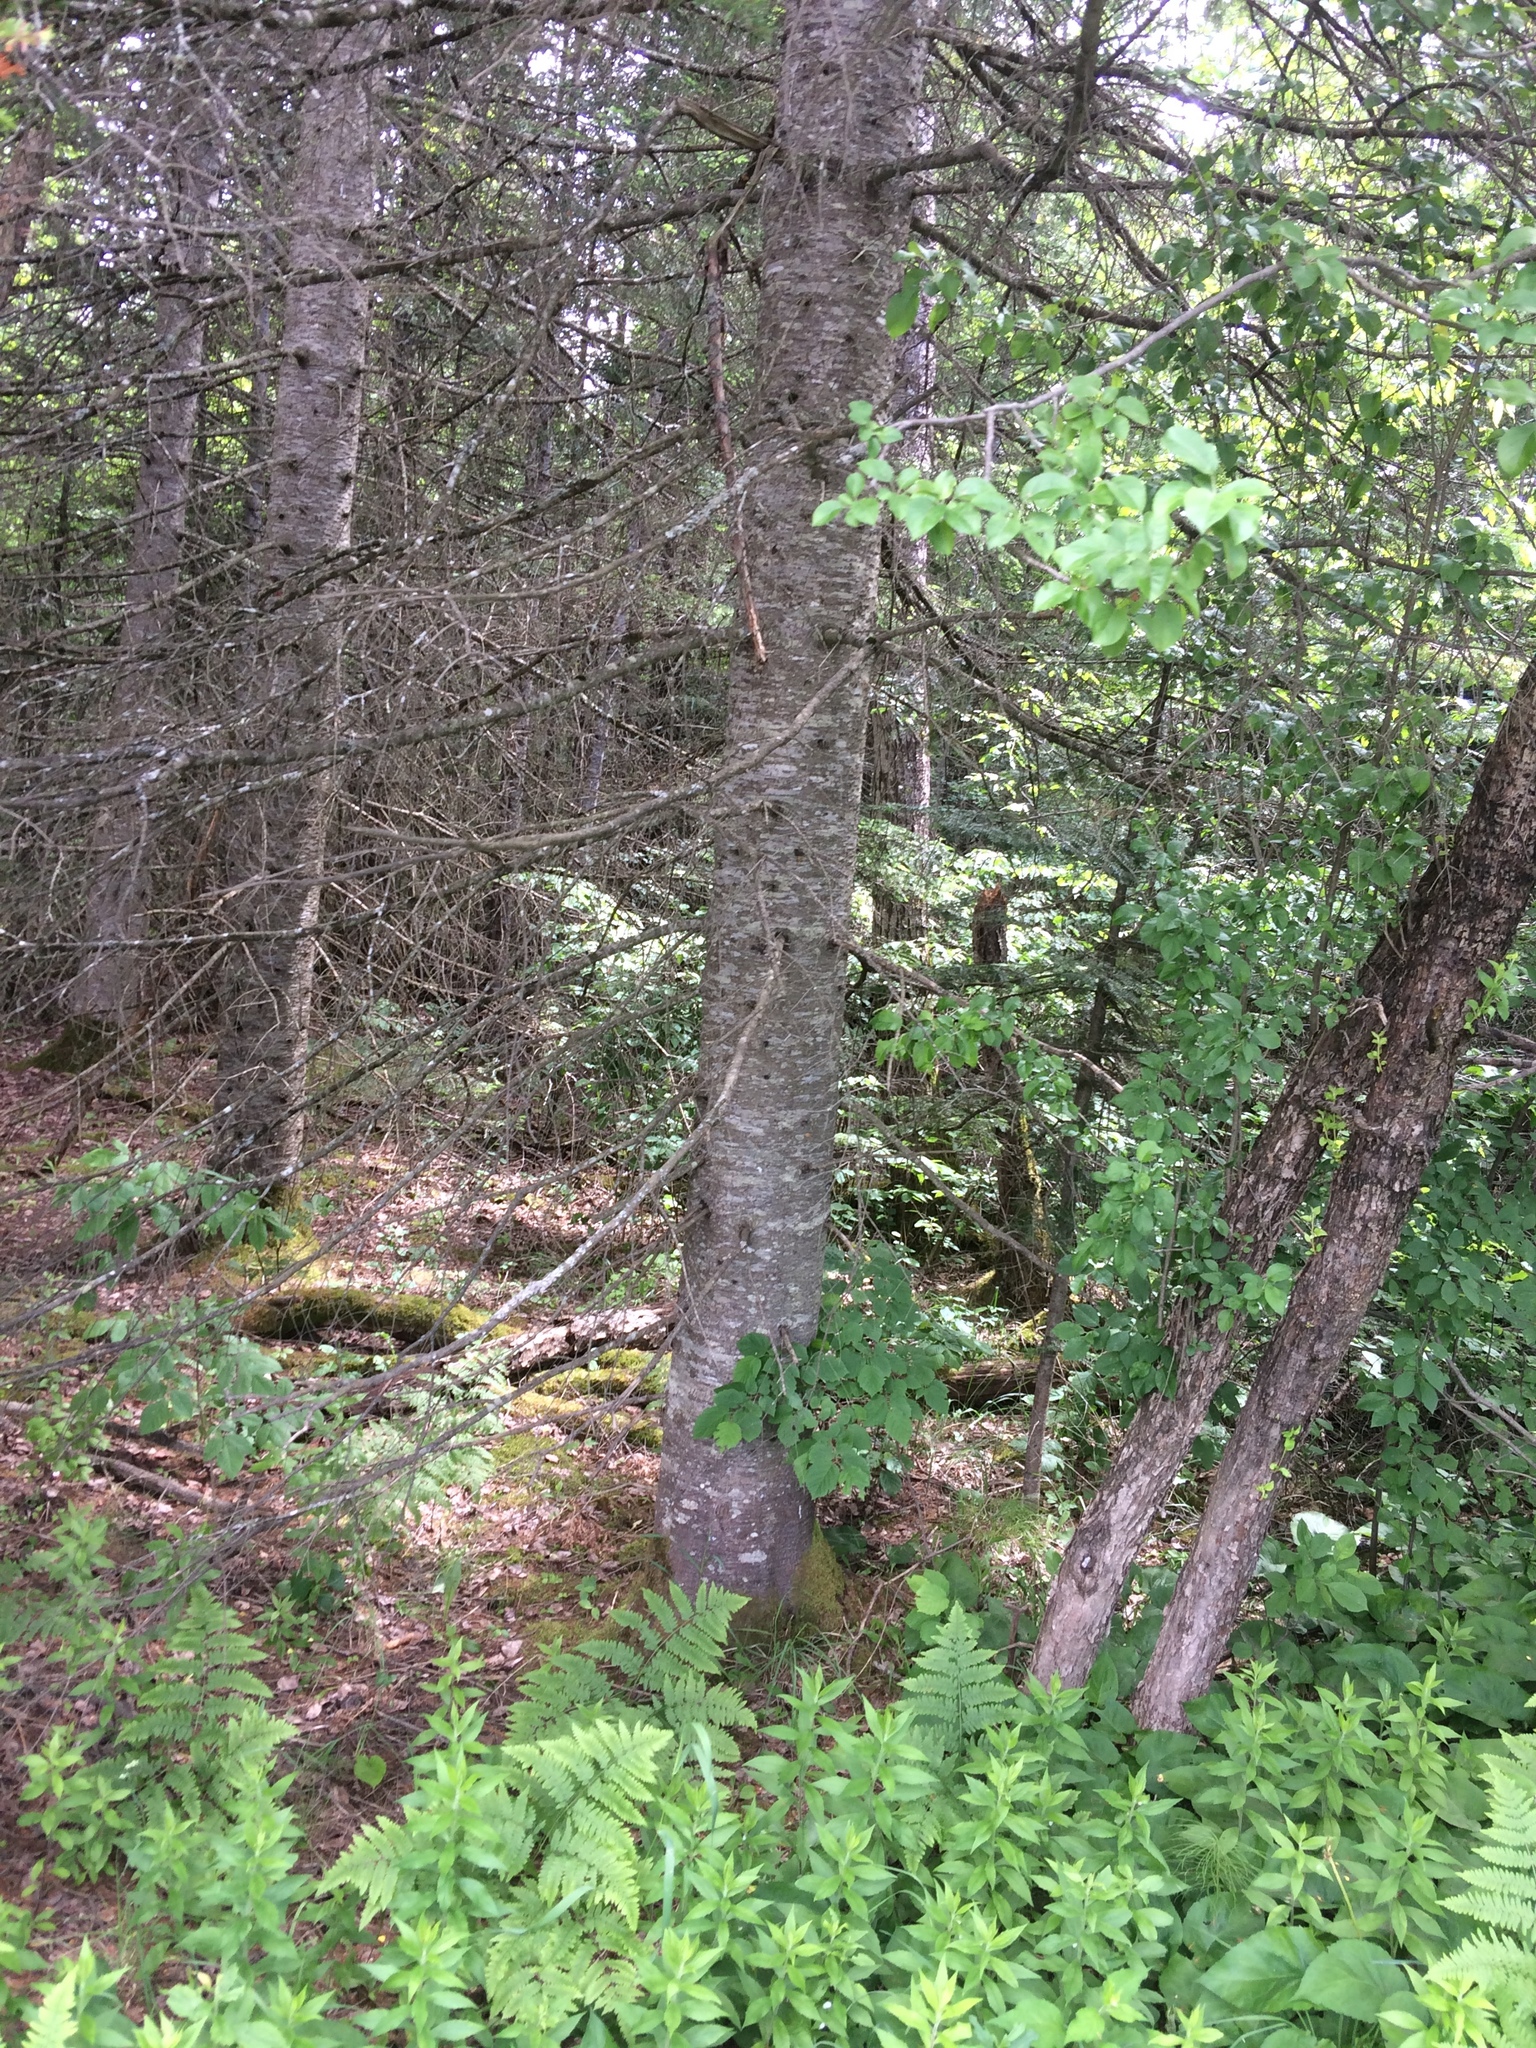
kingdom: Plantae
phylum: Tracheophyta
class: Pinopsida
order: Pinales
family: Pinaceae
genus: Abies
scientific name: Abies balsamea
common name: Balsam fir
